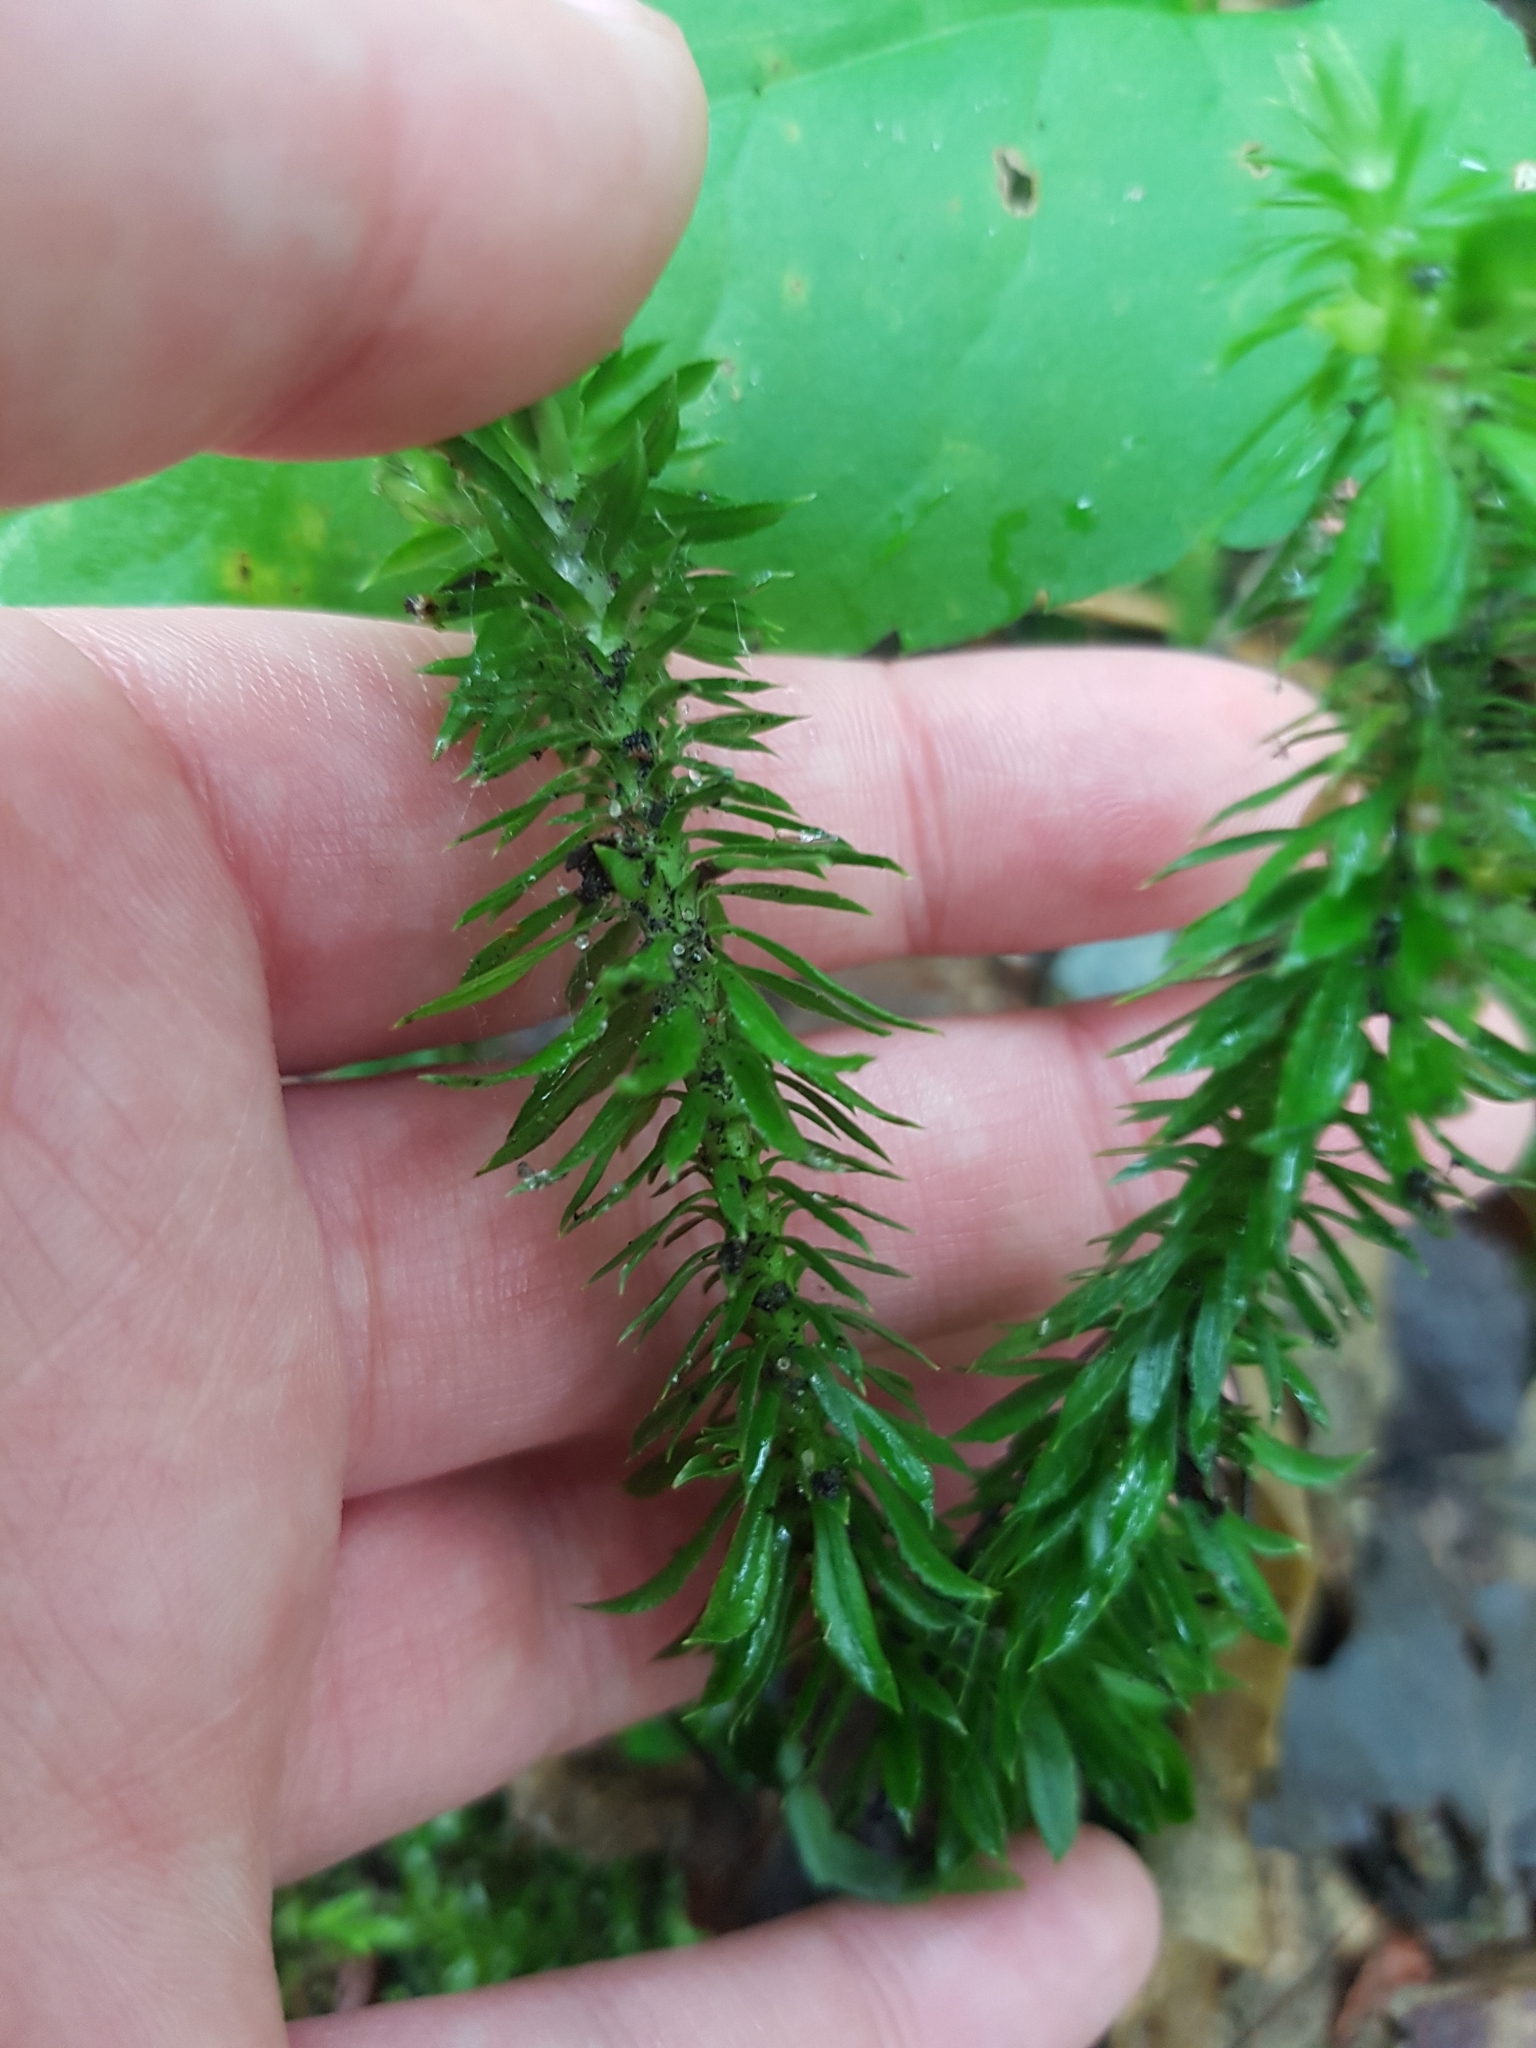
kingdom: Plantae
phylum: Tracheophyta
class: Lycopodiopsida
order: Lycopodiales
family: Lycopodiaceae
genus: Huperzia
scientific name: Huperzia lucidula
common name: Shining clubmoss
